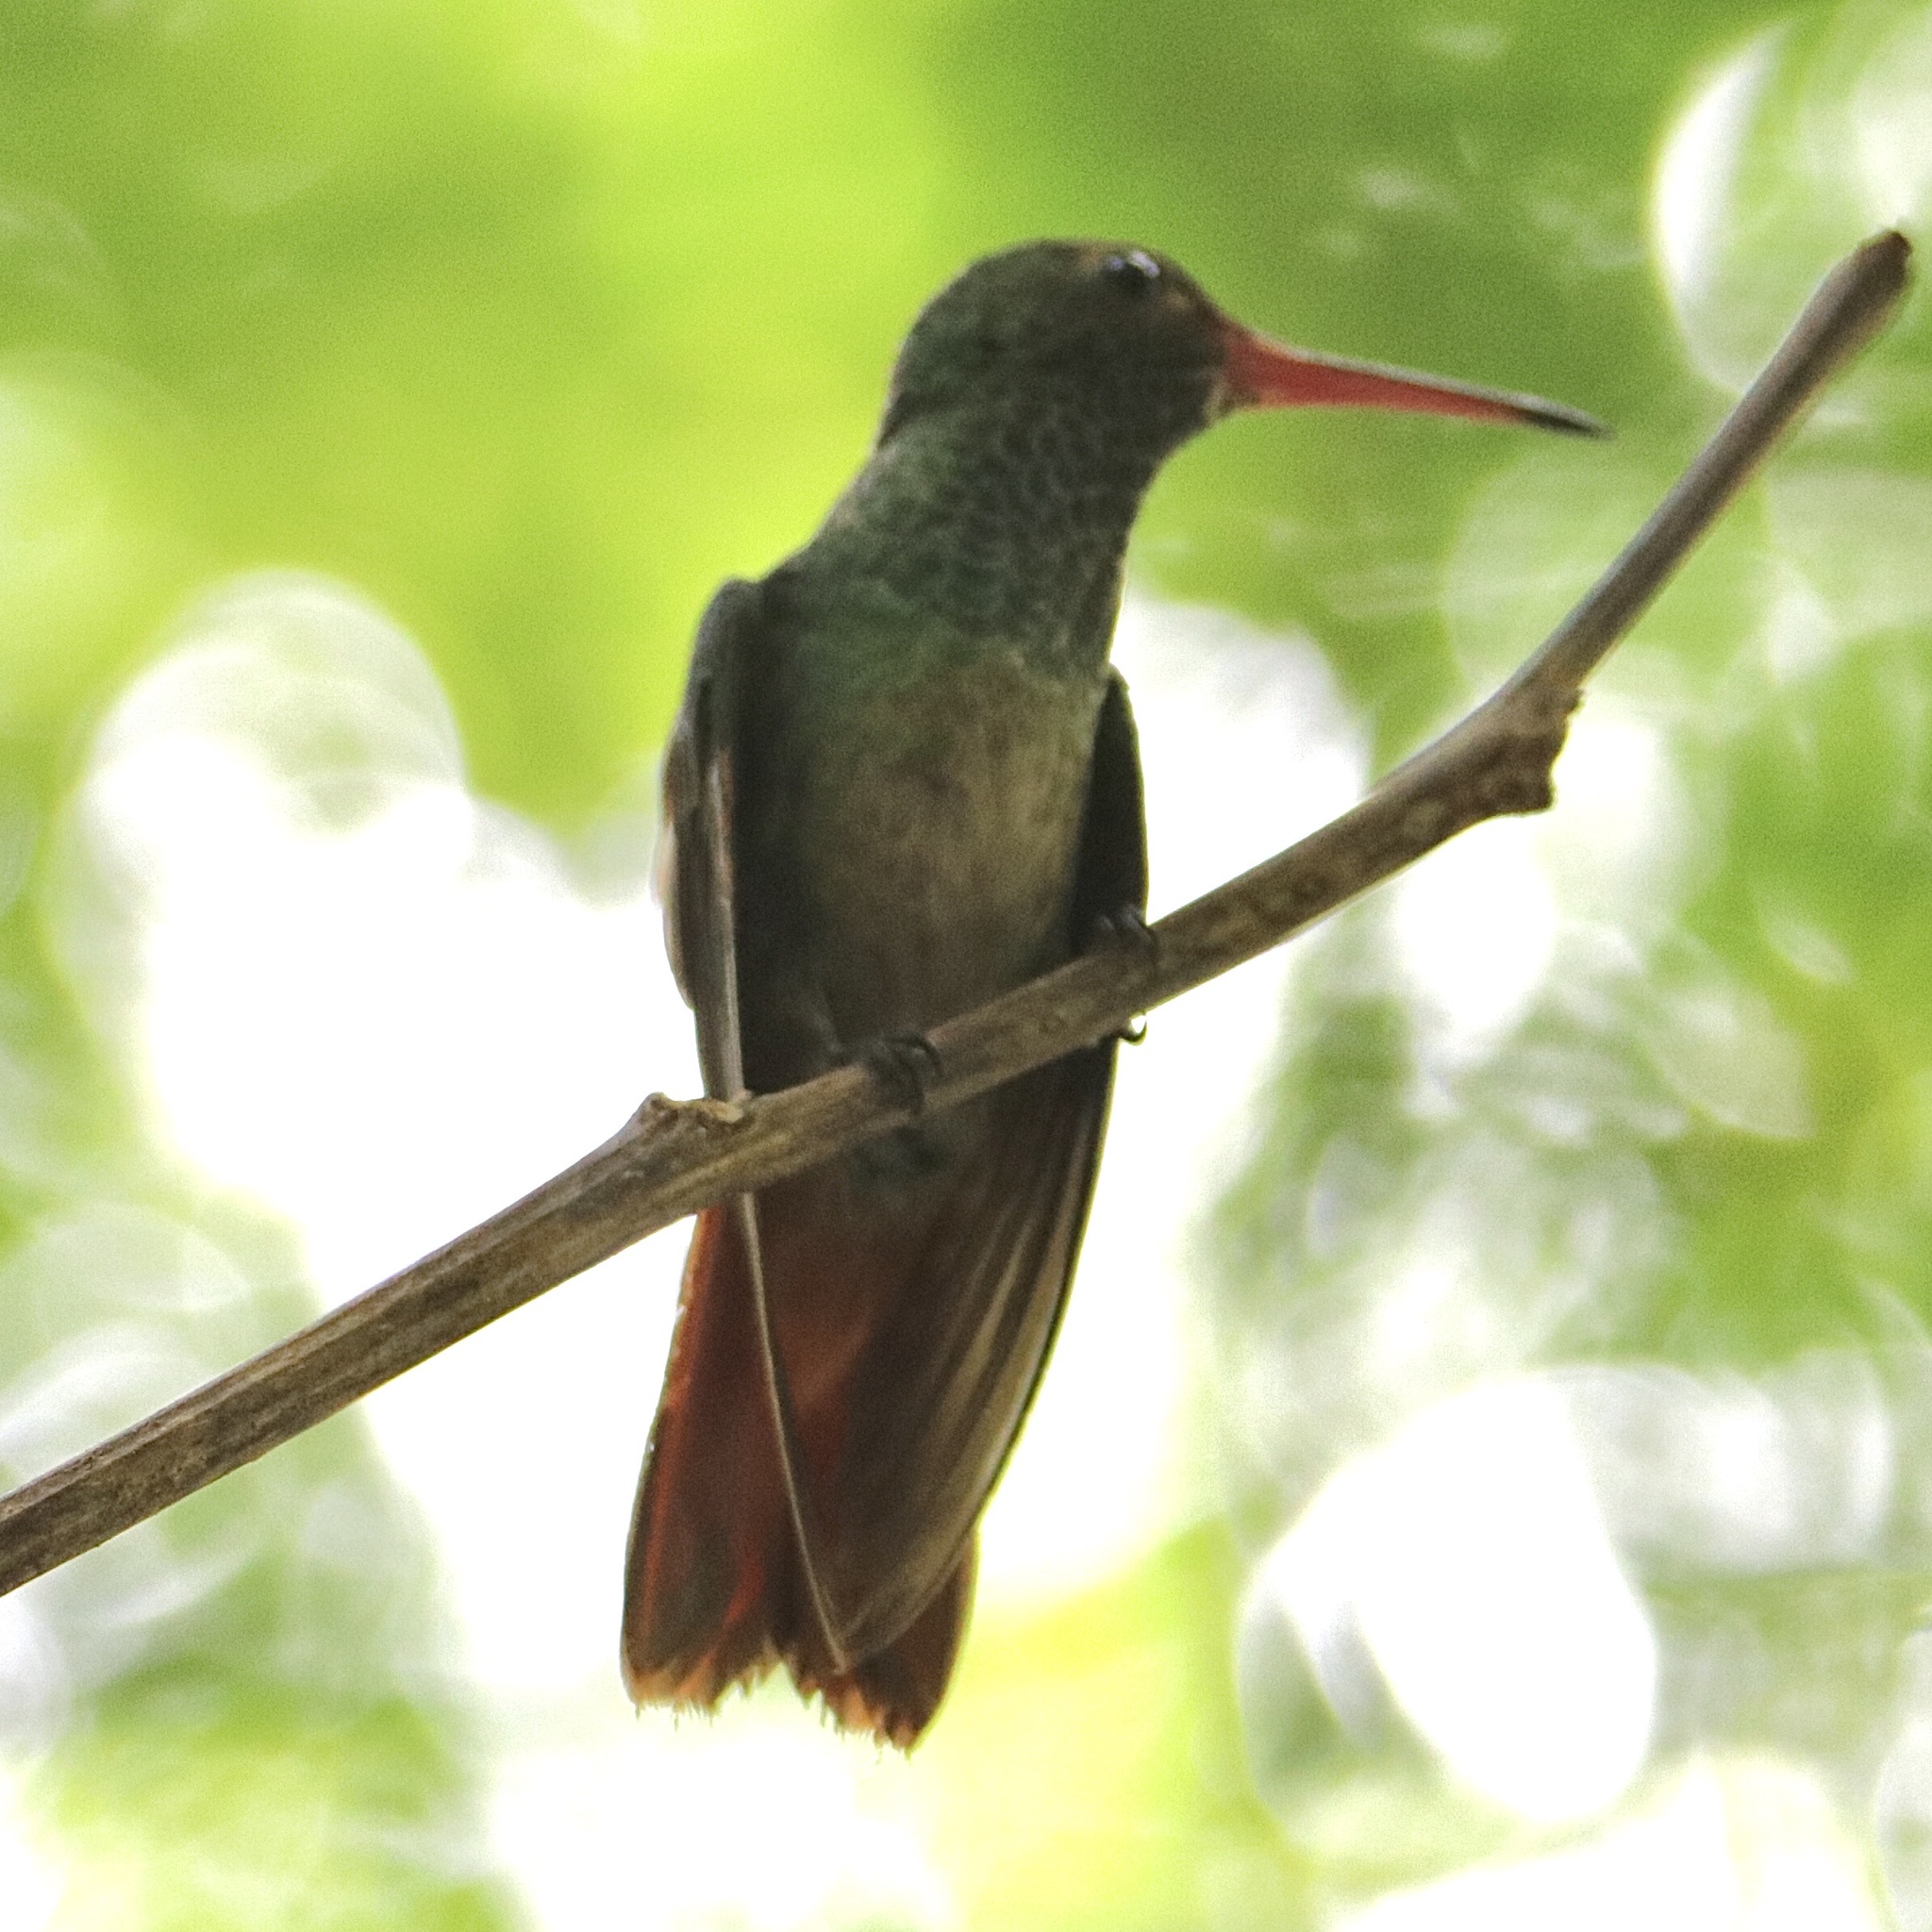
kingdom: Animalia
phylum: Chordata
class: Aves
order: Apodiformes
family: Trochilidae
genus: Amazilia
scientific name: Amazilia tzacatl
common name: Rufous-tailed hummingbird
